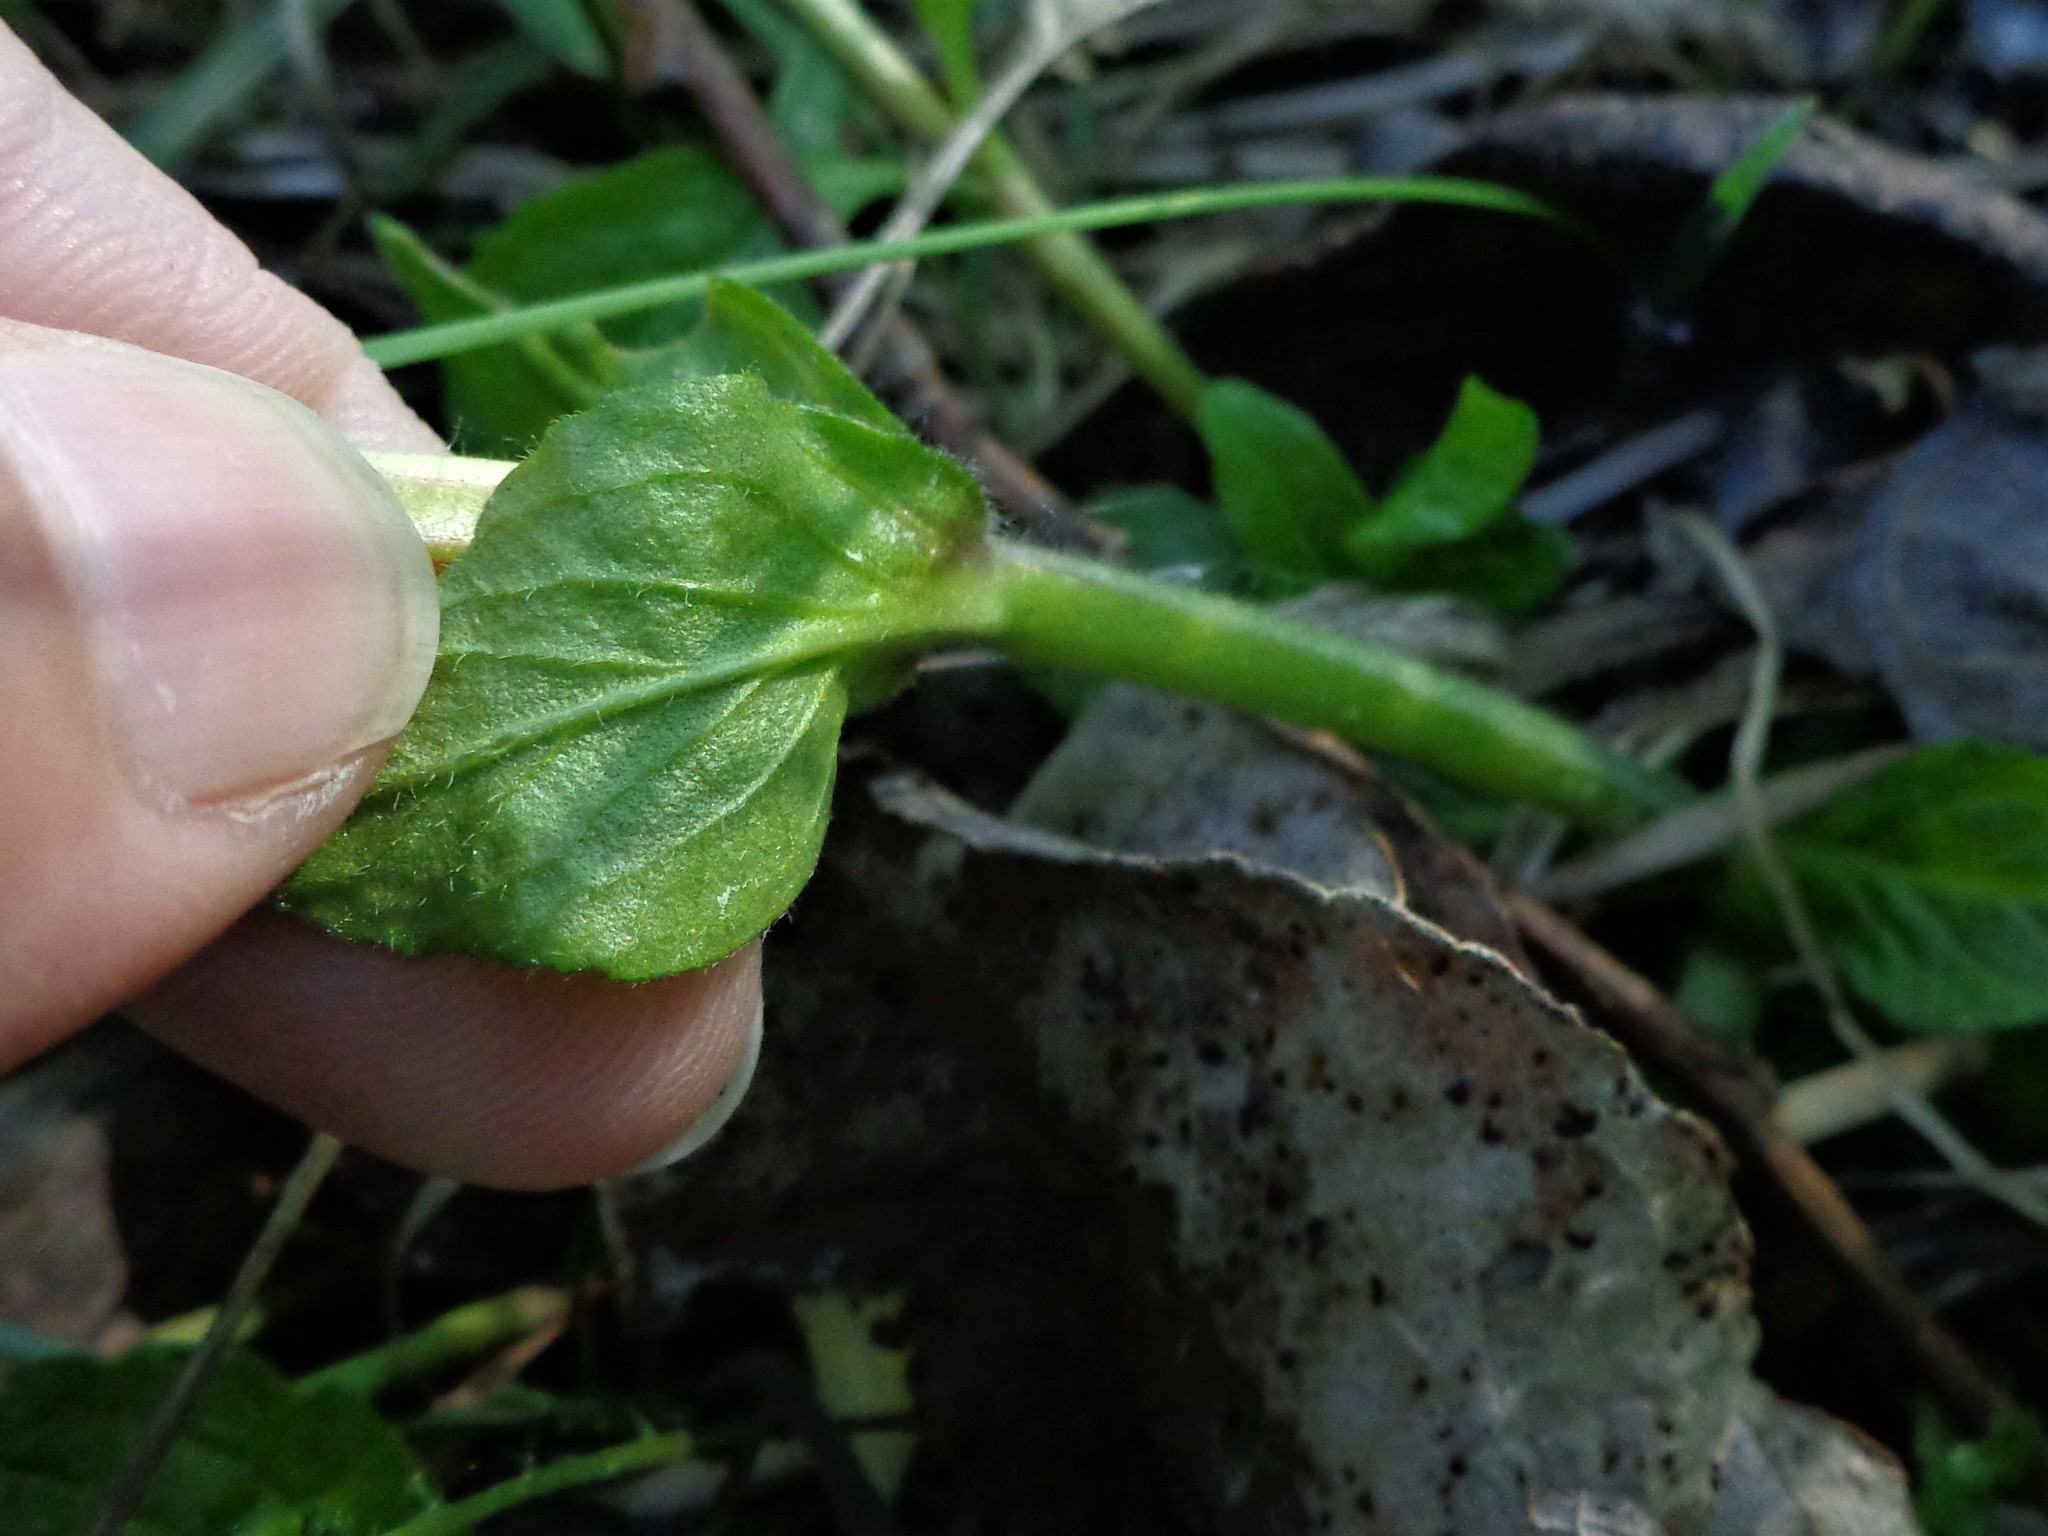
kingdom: Plantae
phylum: Tracheophyta
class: Magnoliopsida
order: Lamiales
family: Lamiaceae
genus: Ajuga
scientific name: Ajuga reptans
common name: Bugle
